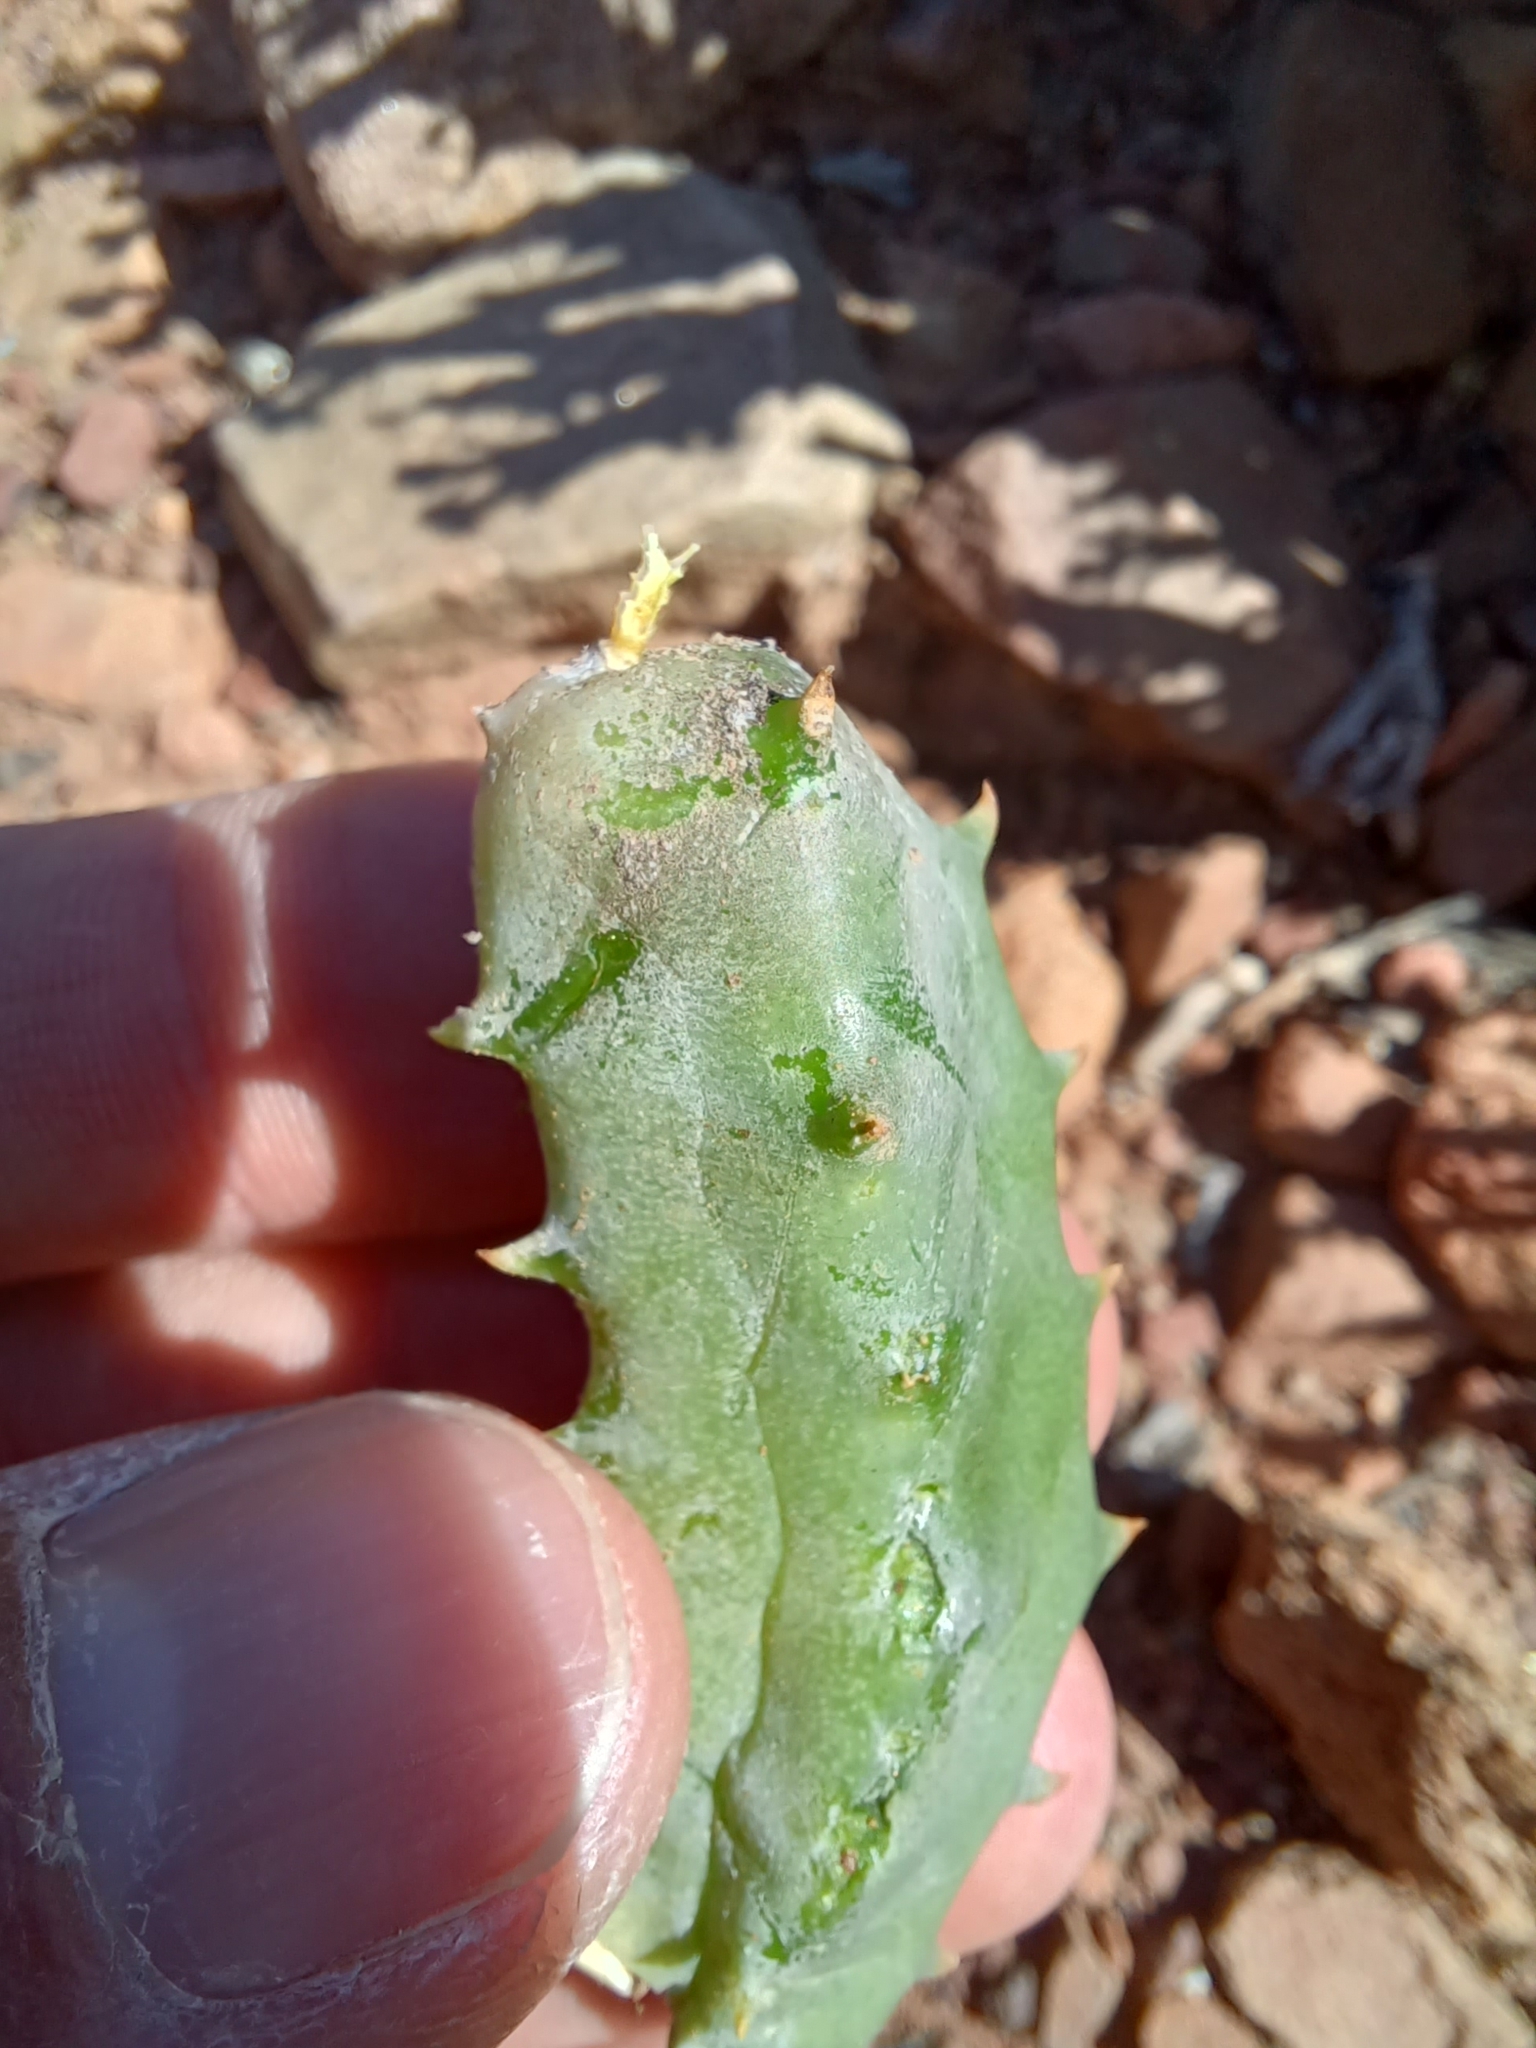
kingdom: Plantae
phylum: Tracheophyta
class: Magnoliopsida
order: Gentianales
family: Apocynaceae
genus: Ceropegia
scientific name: Ceropegia tulipiflora
